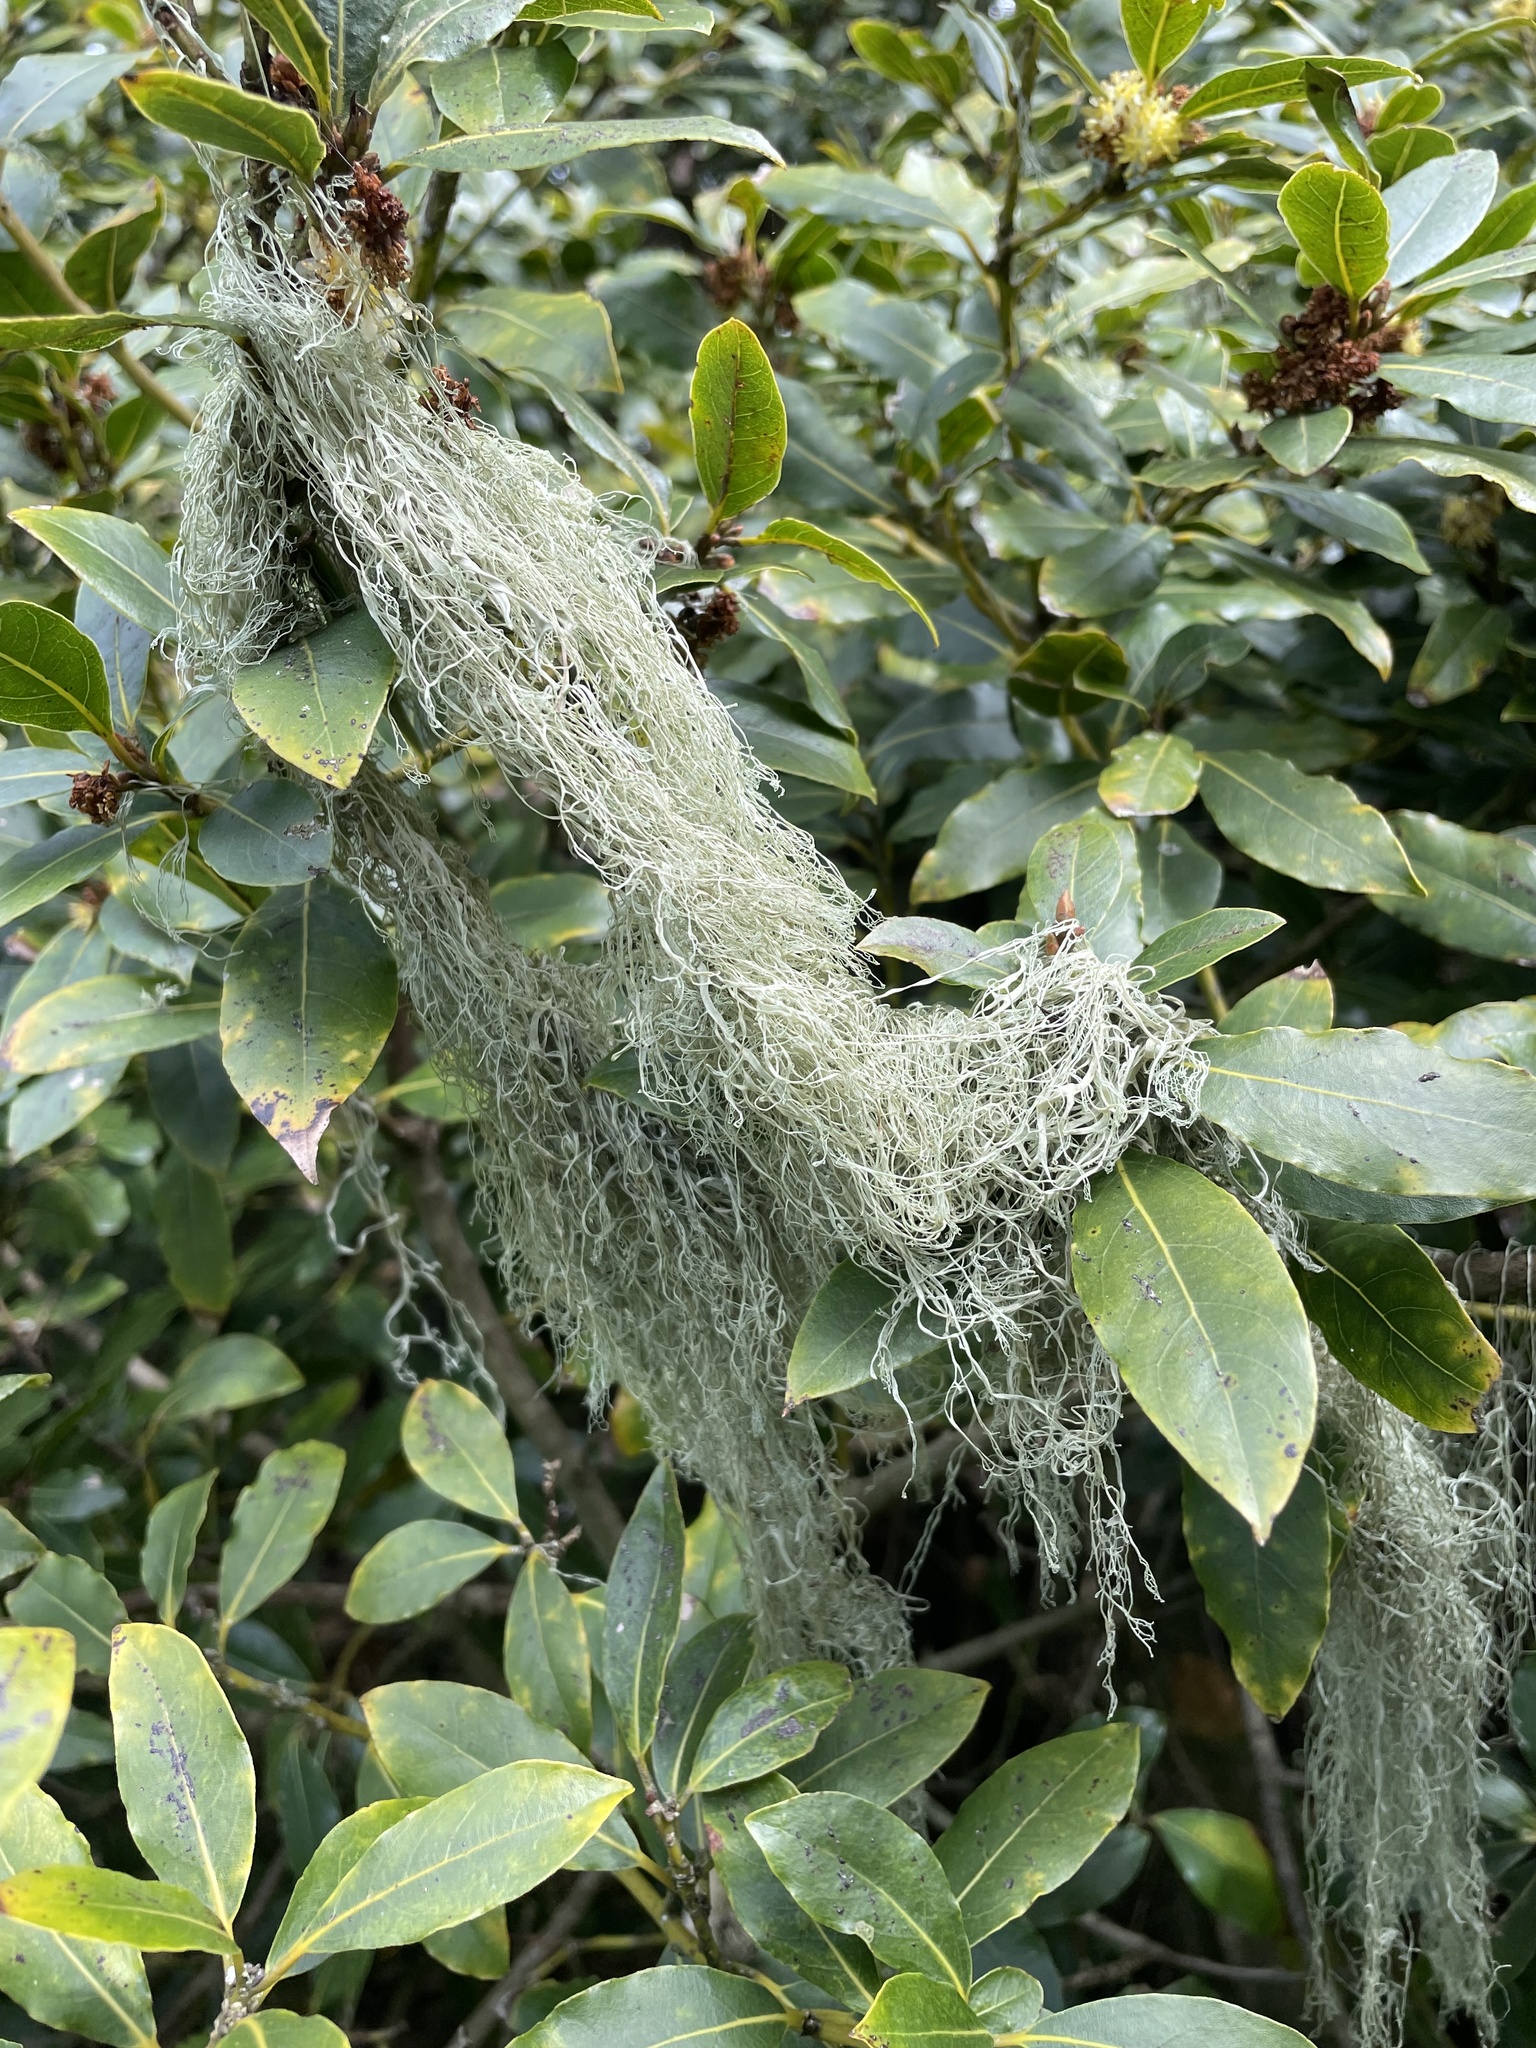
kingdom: Fungi
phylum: Ascomycota
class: Lecanoromycetes
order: Lecanorales
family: Ramalinaceae
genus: Ramalina
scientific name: Ramalina menziesii
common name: Lace lichen
